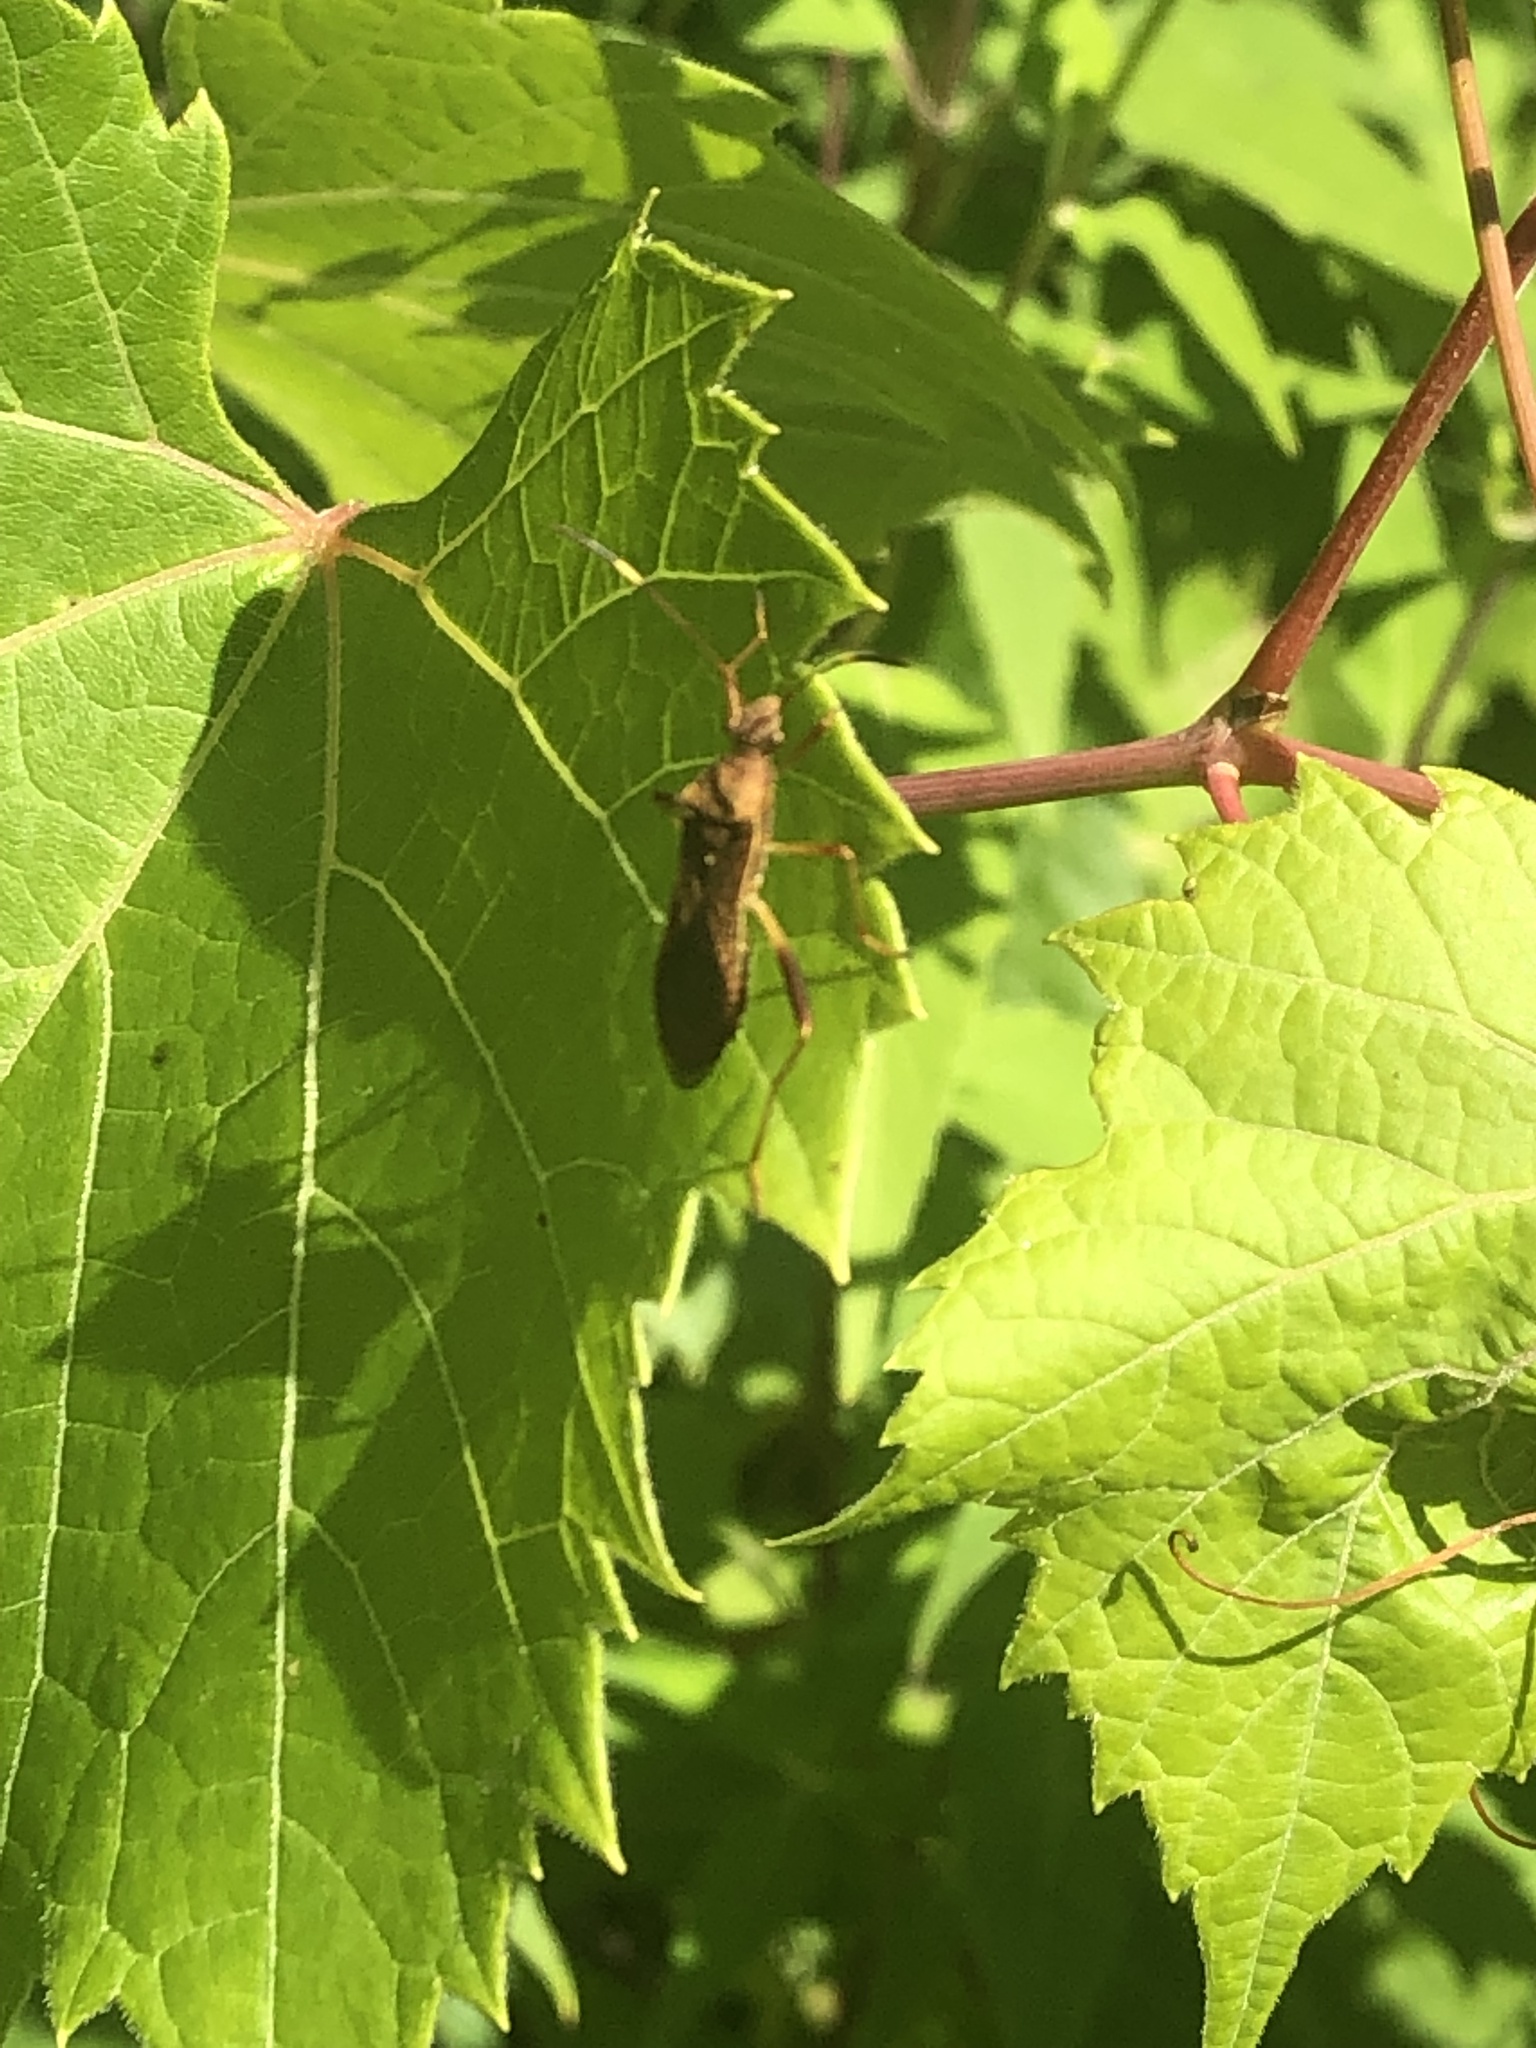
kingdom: Animalia
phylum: Arthropoda
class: Insecta
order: Hemiptera
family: Alydidae
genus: Megalotomus
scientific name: Megalotomus quinquespinosus
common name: Lupine bug
